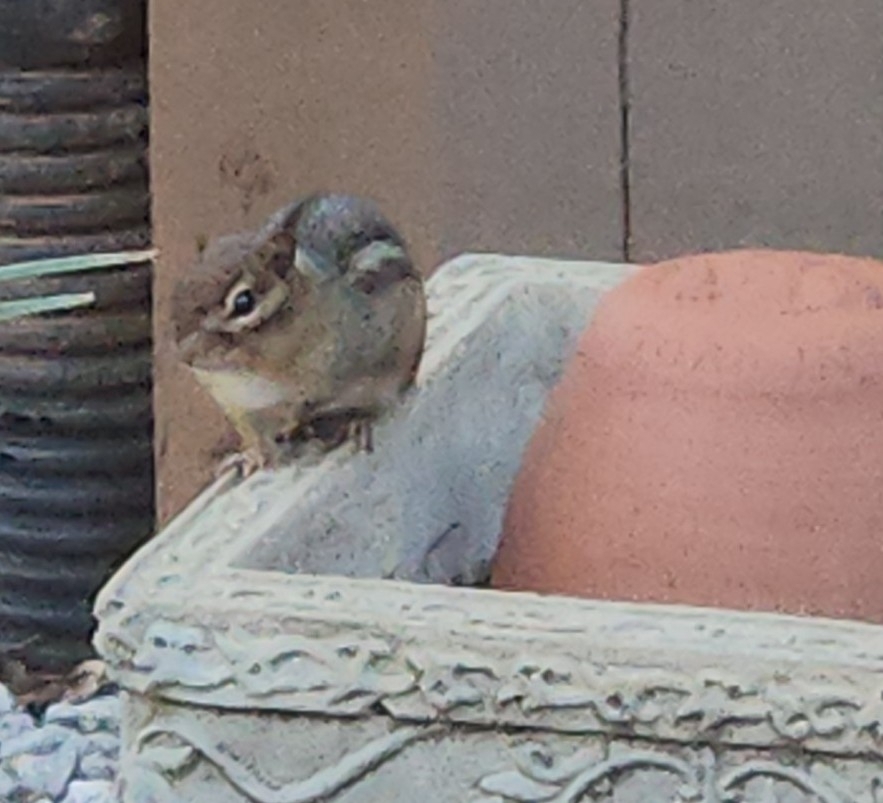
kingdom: Animalia
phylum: Chordata
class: Mammalia
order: Rodentia
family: Sciuridae
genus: Tamias
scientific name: Tamias striatus
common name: Eastern chipmunk
